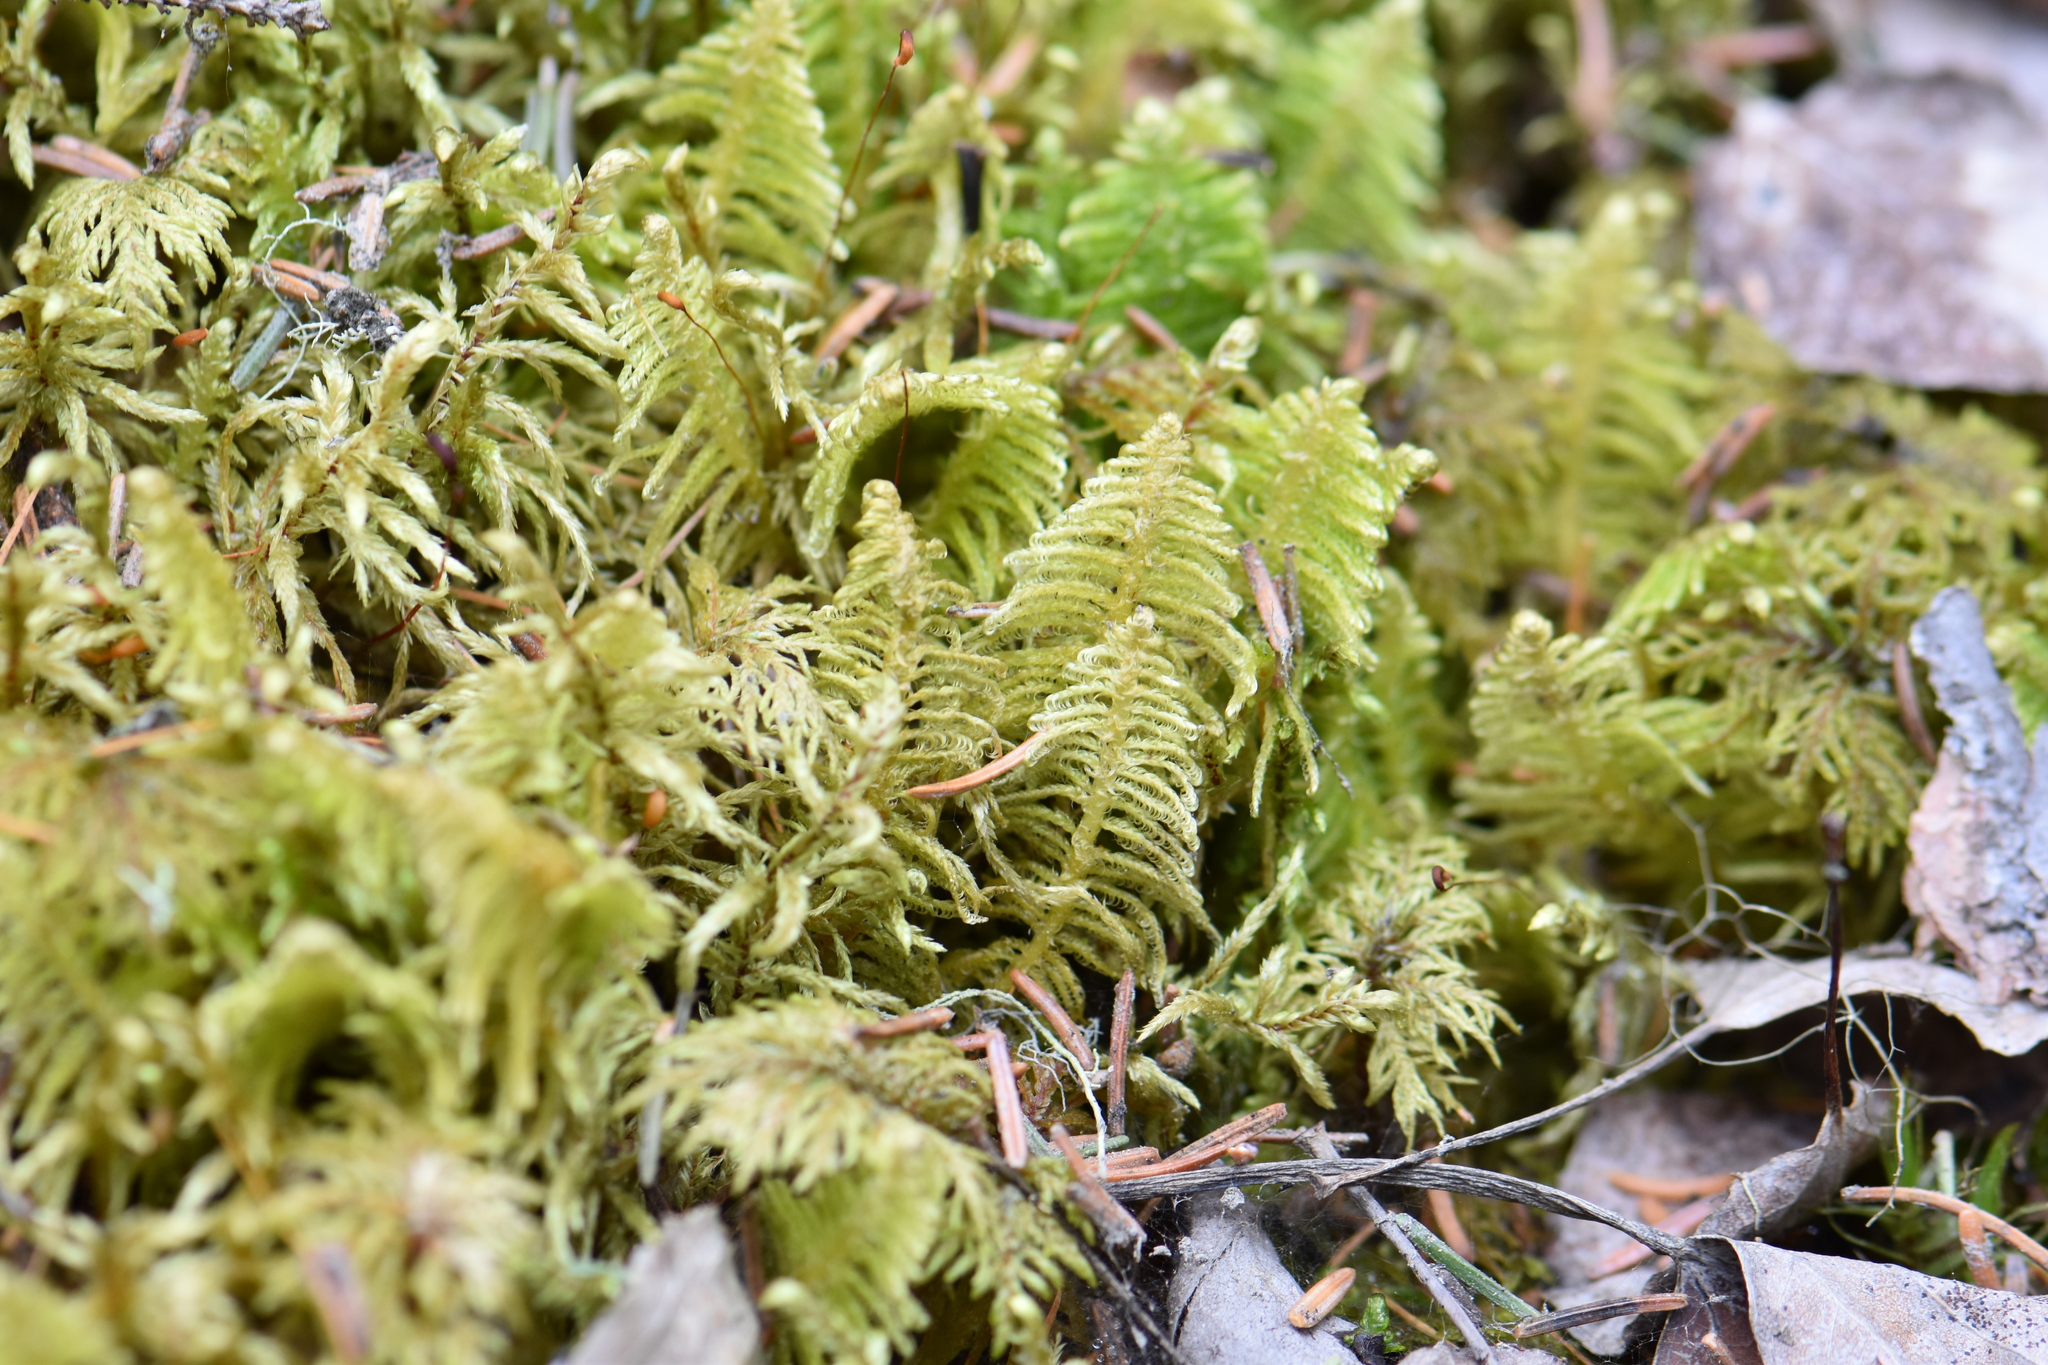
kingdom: Plantae
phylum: Bryophyta
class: Bryopsida
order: Hypnales
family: Pylaisiaceae
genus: Ptilium
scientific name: Ptilium crista-castrensis
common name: Knight's plume moss
